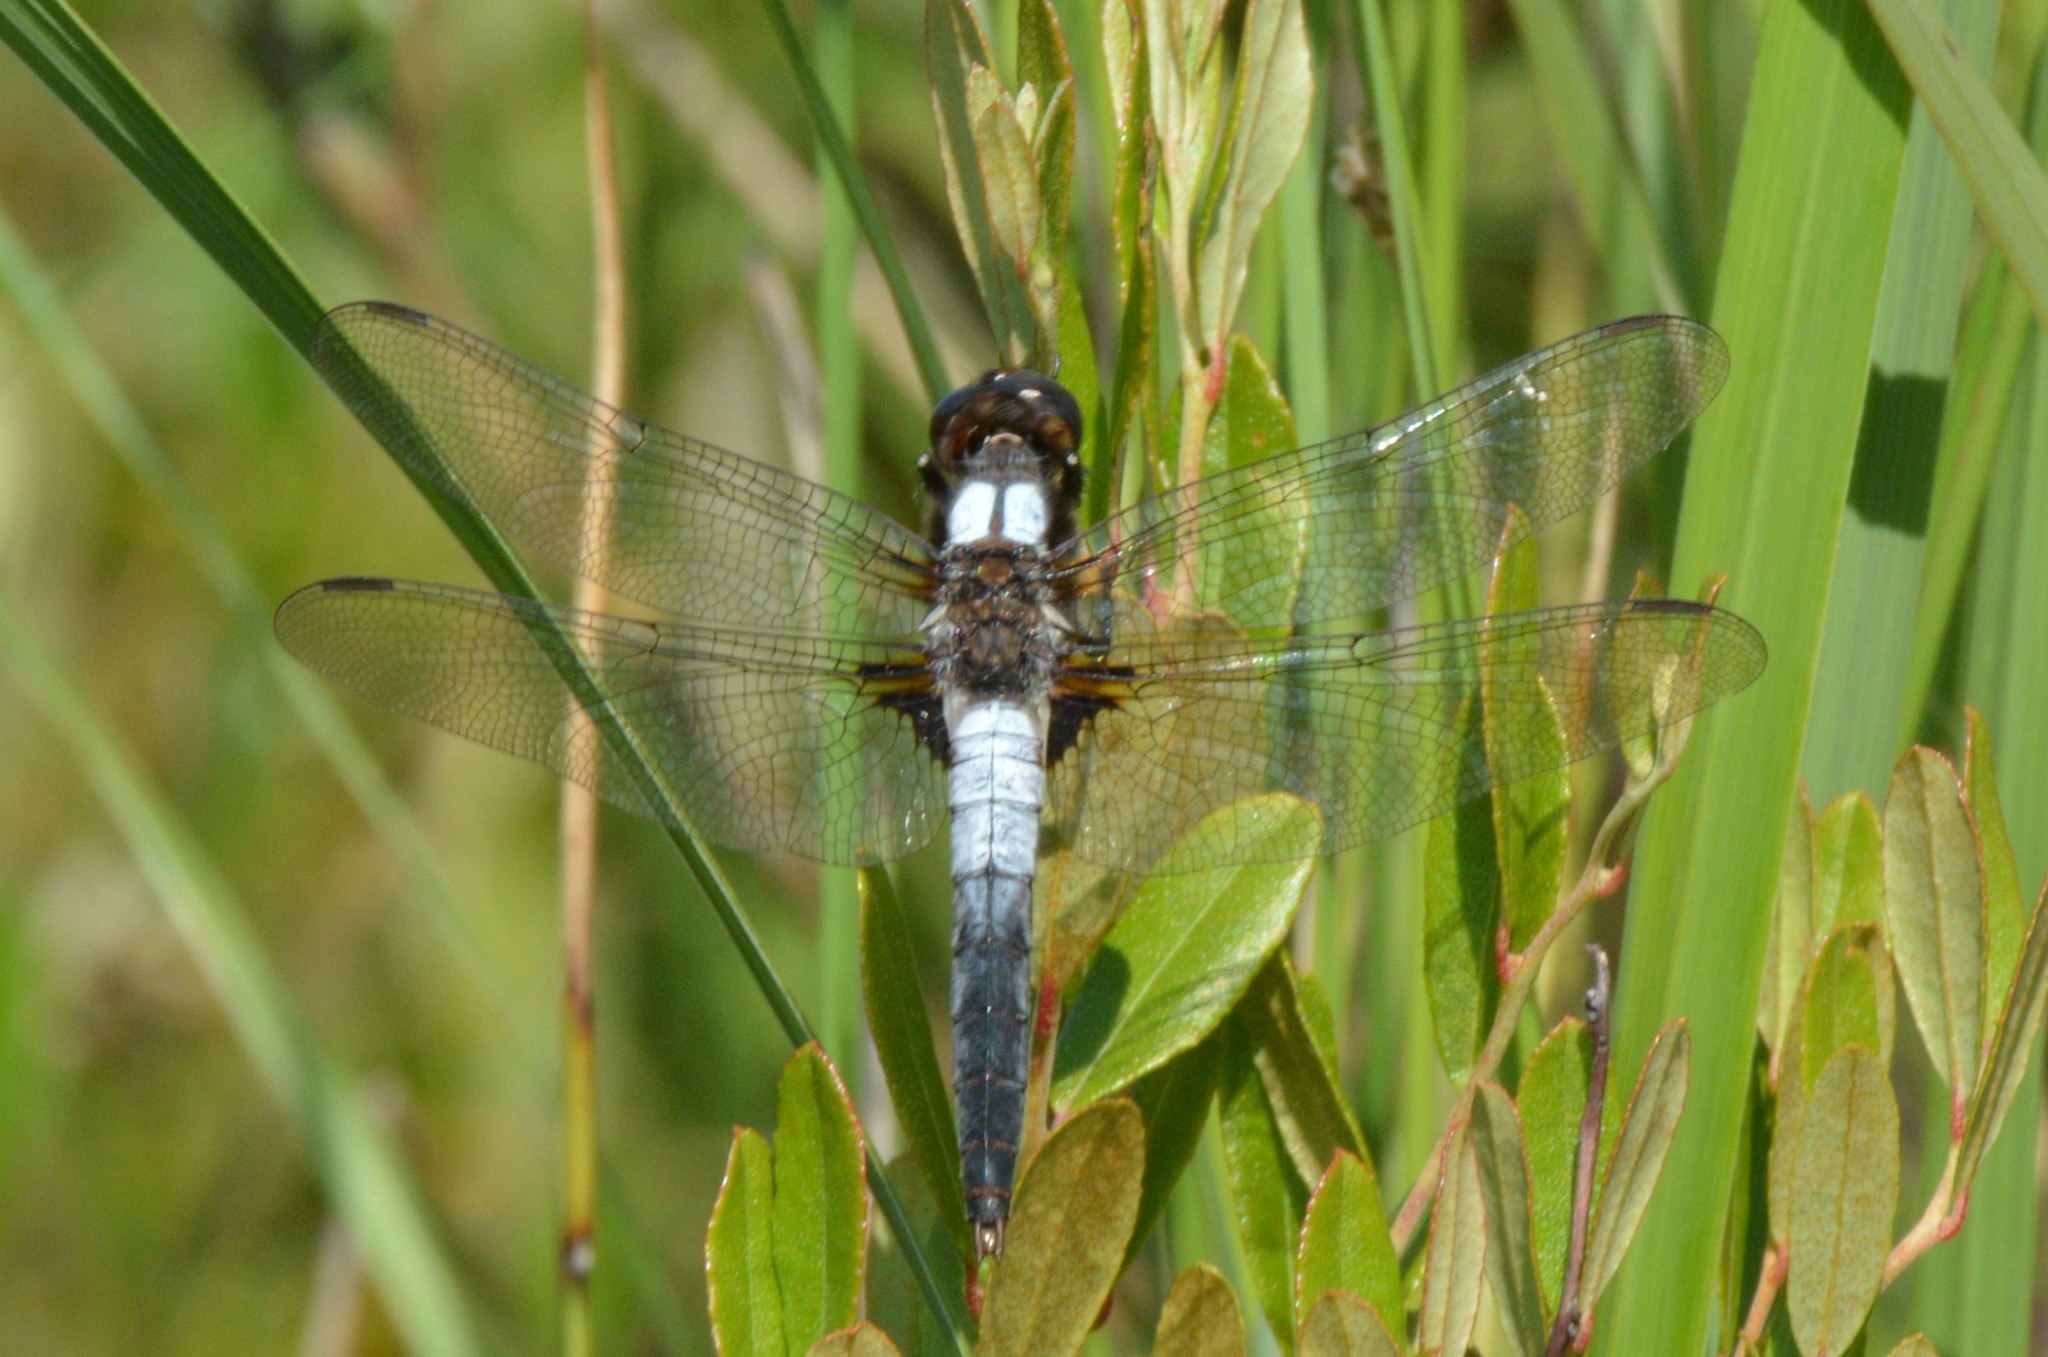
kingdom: Animalia
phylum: Arthropoda
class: Insecta
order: Odonata
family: Libellulidae
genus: Ladona
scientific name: Ladona julia
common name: Chalk-fronted corporal
